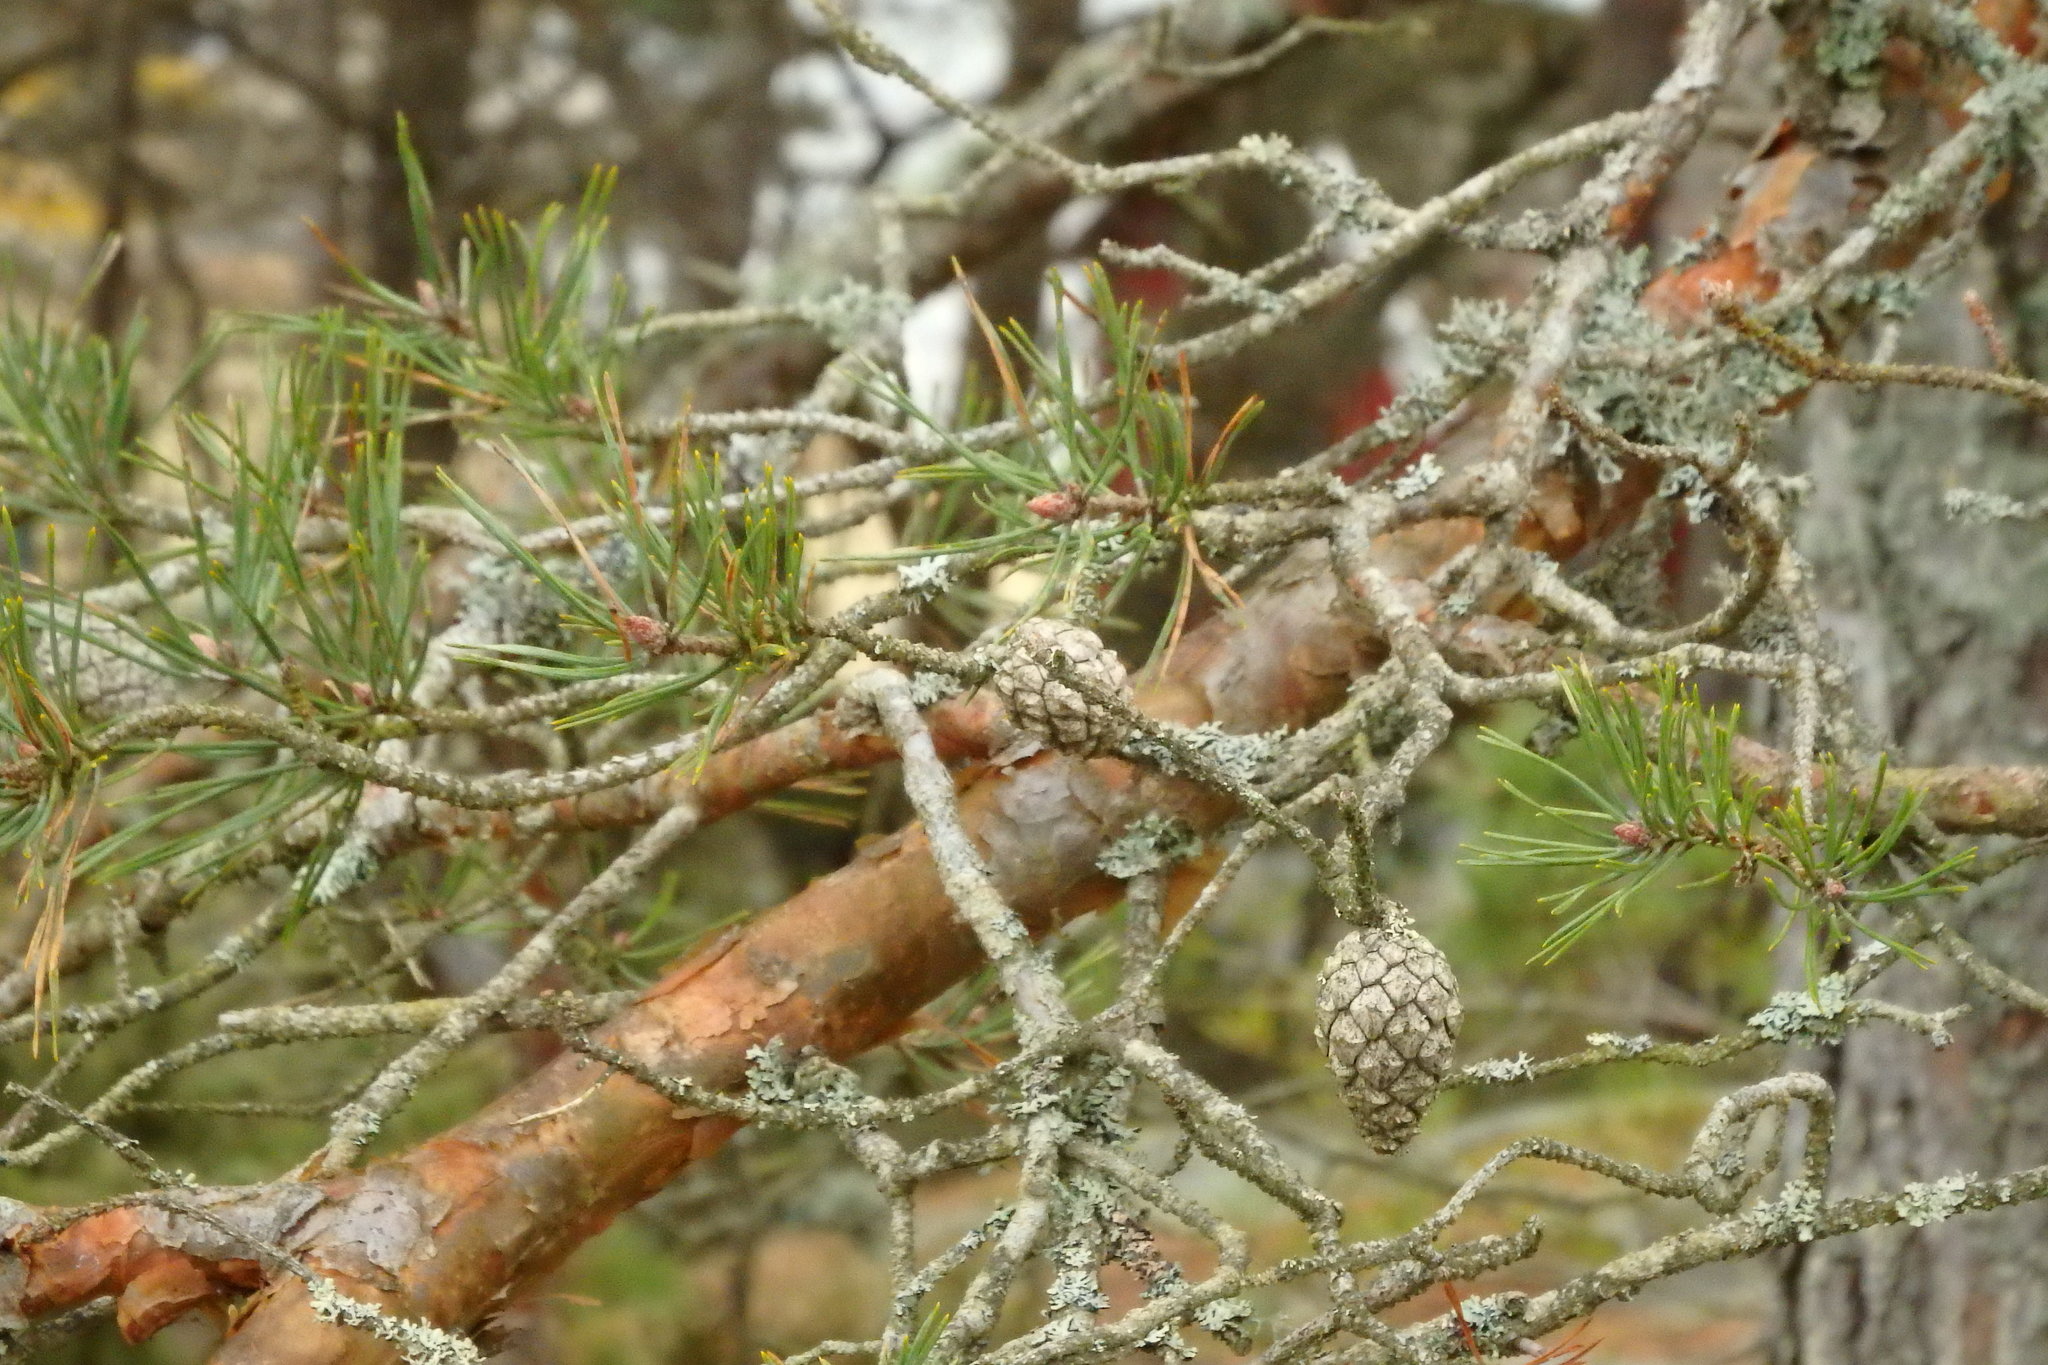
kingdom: Plantae
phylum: Tracheophyta
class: Pinopsida
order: Pinales
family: Pinaceae
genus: Pinus
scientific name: Pinus sylvestris
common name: Scots pine
